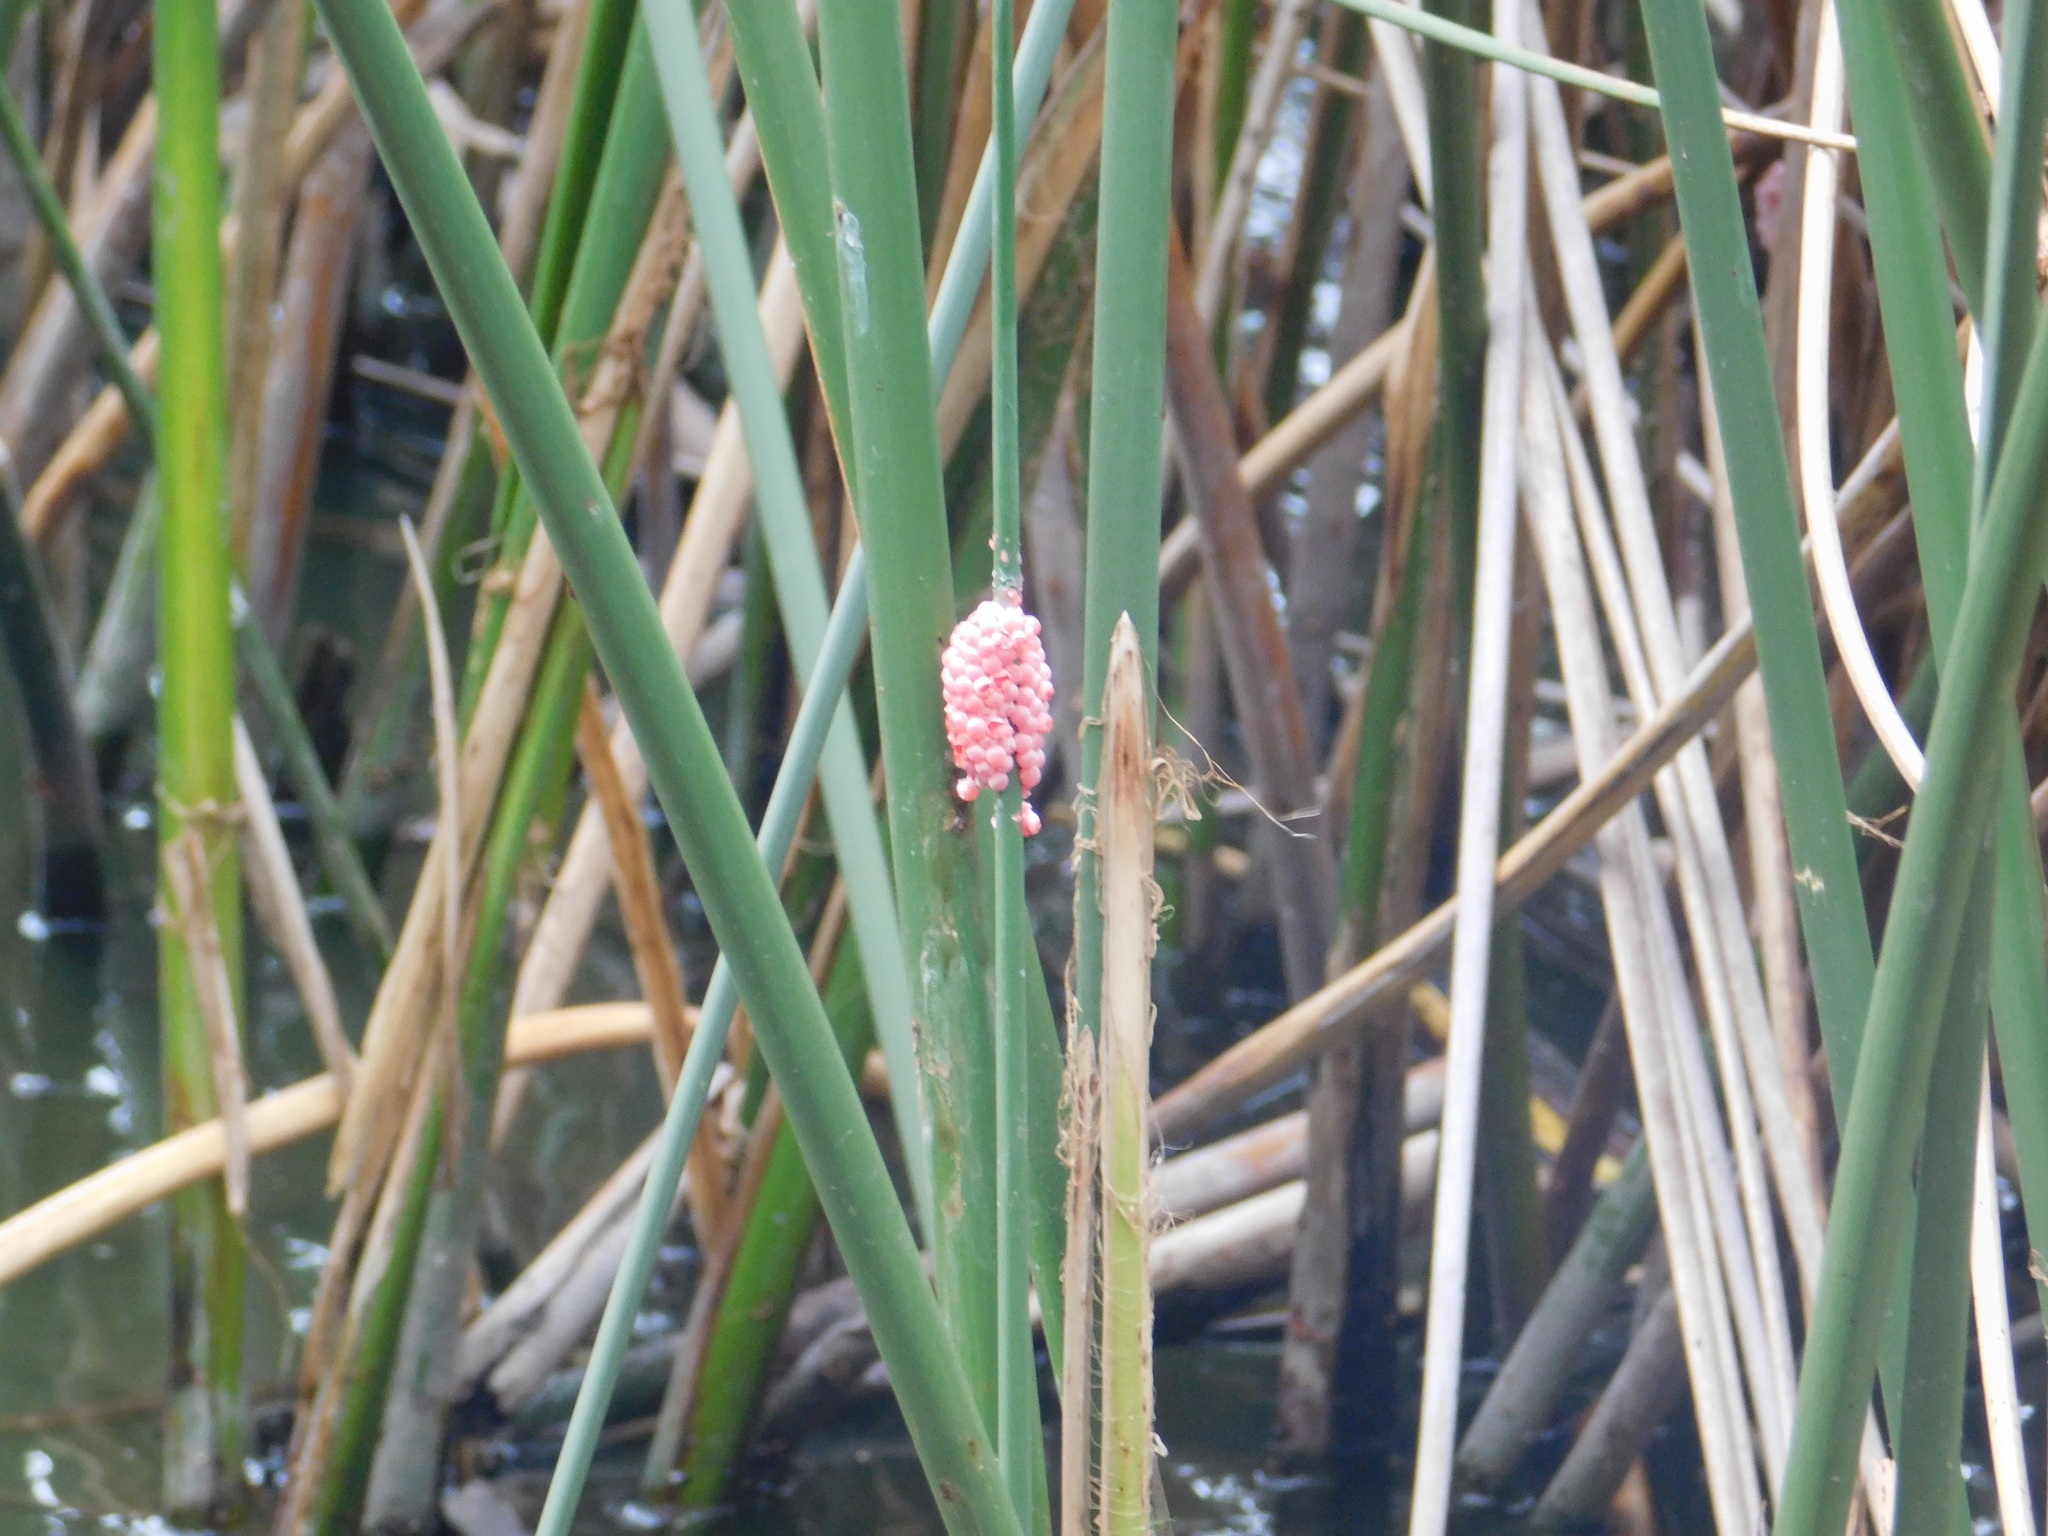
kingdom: Animalia
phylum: Mollusca
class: Gastropoda
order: Architaenioglossa
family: Ampullariidae
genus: Pomacea
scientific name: Pomacea canaliculata
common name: Channeled applesnail
